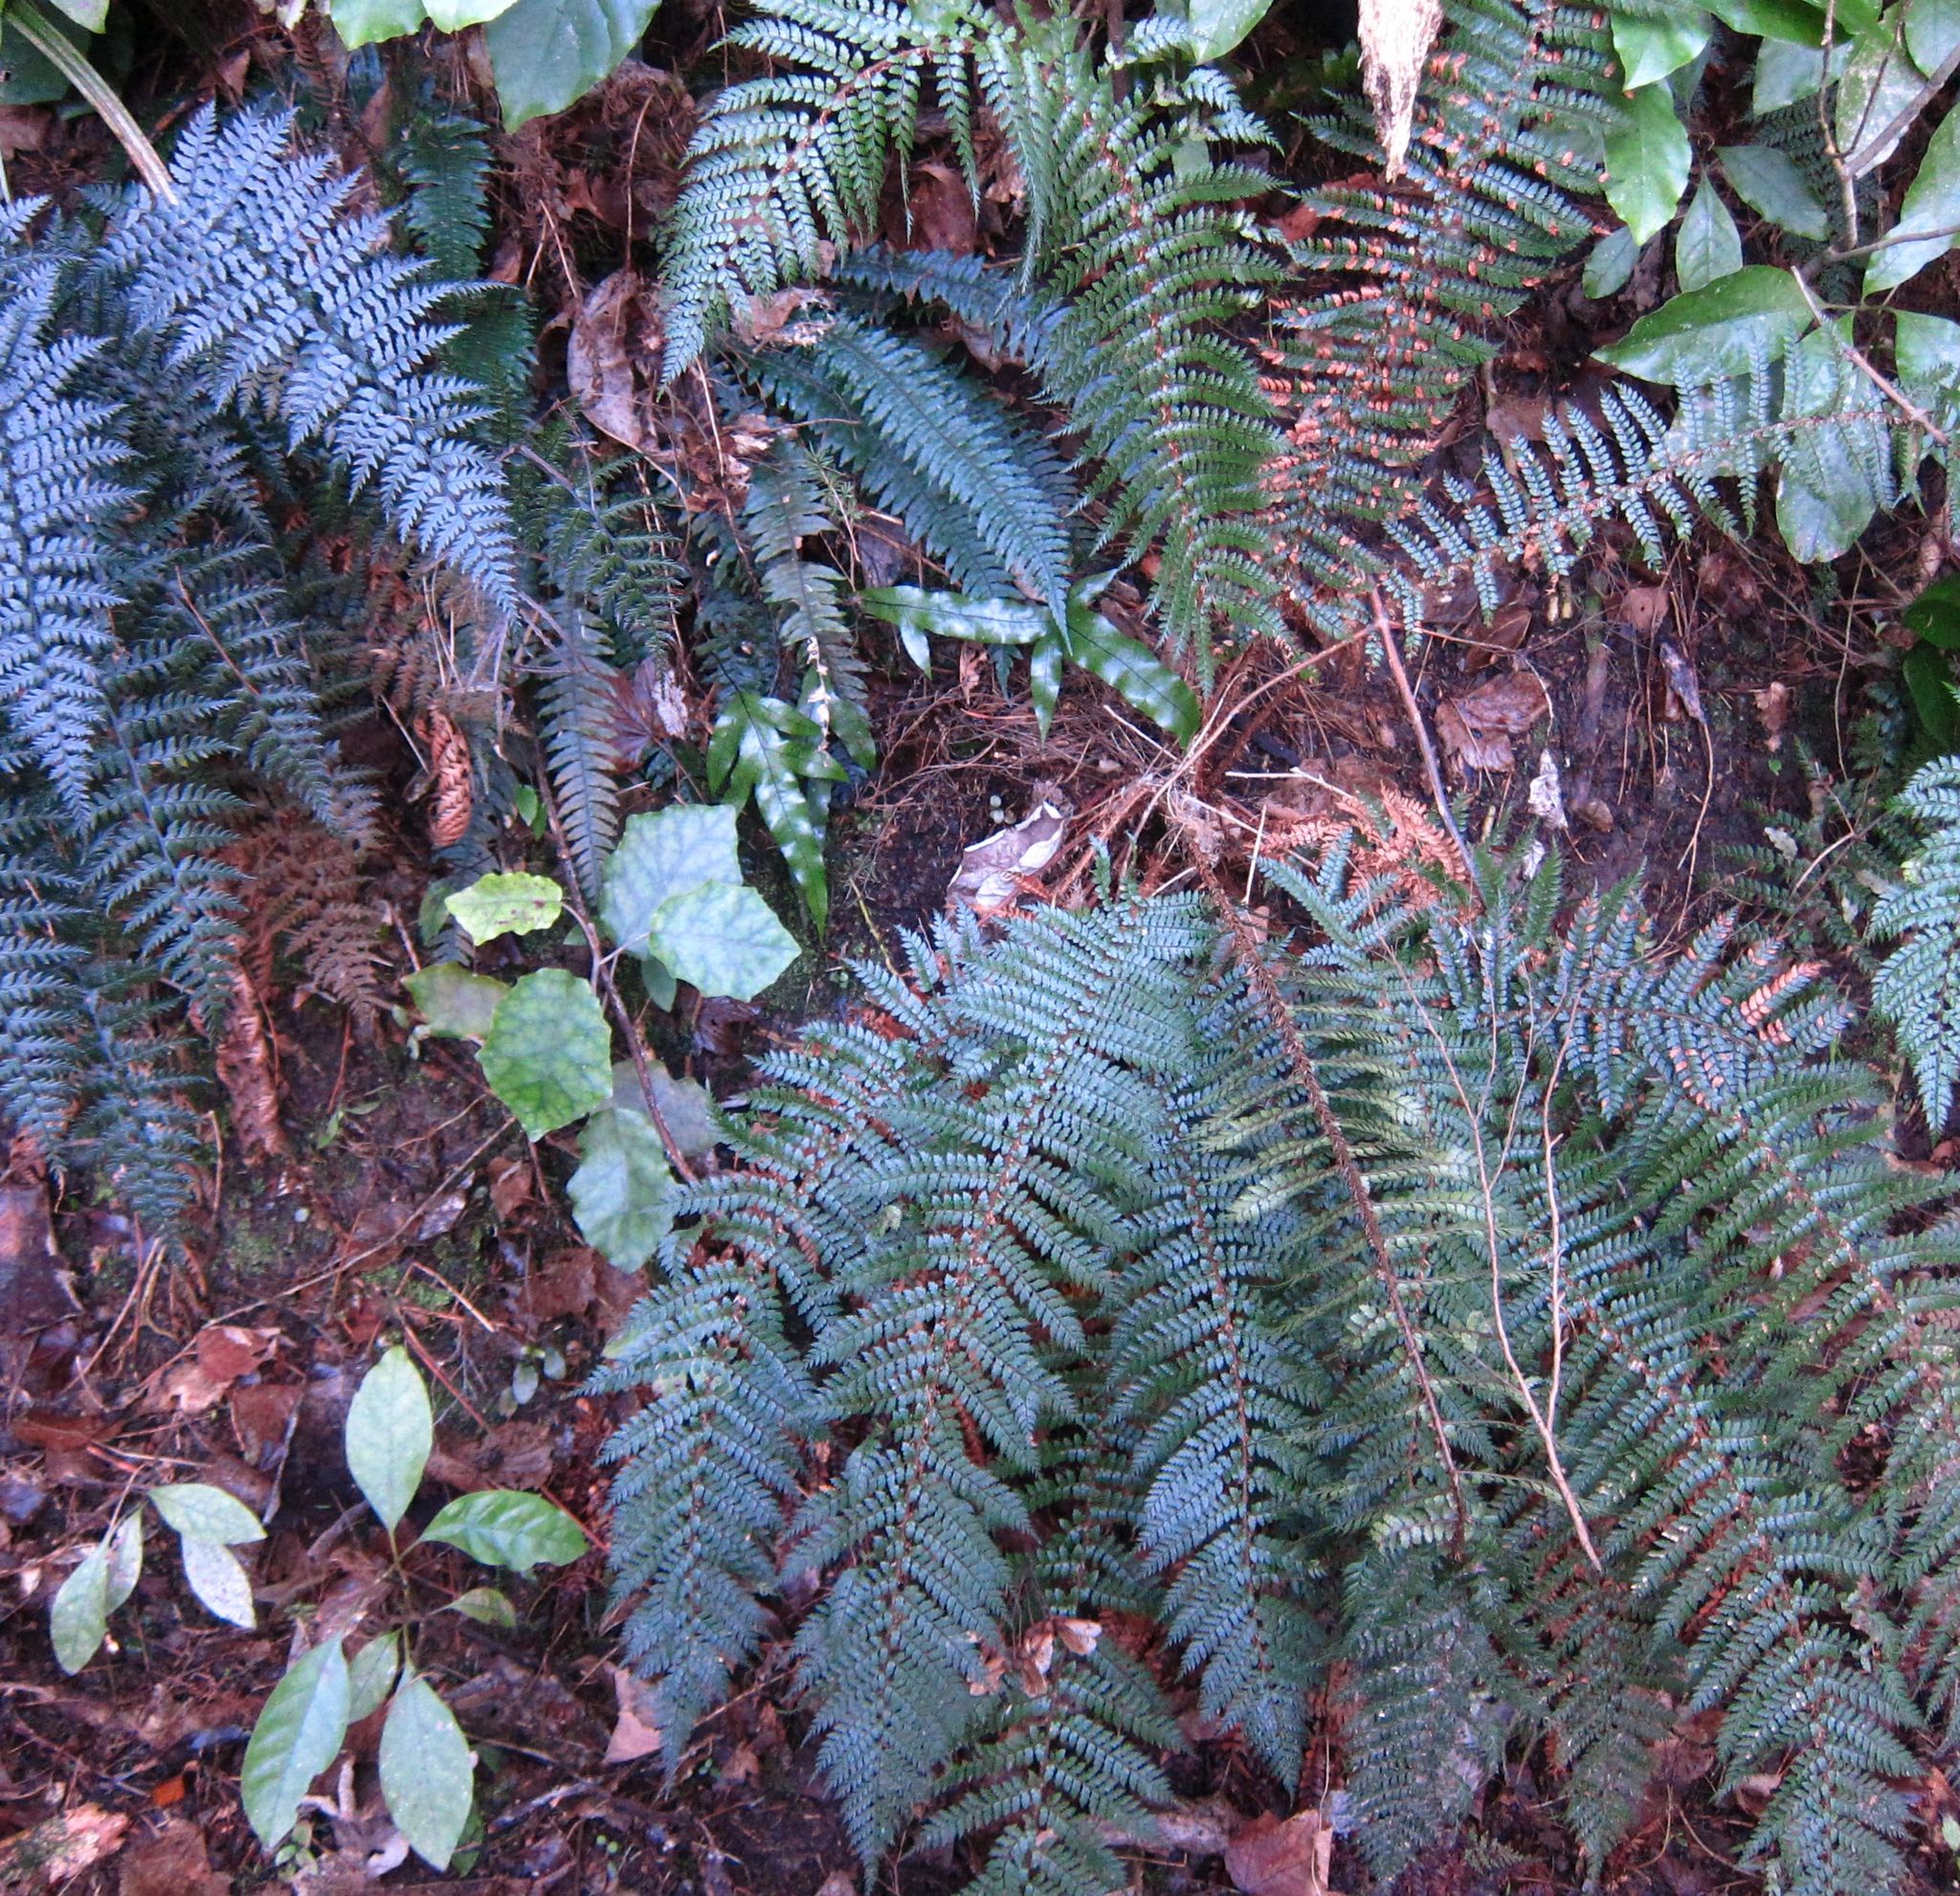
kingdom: Plantae
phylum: Tracheophyta
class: Polypodiopsida
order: Polypodiales
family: Dryopteridaceae
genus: Polystichum
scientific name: Polystichum vestitum
